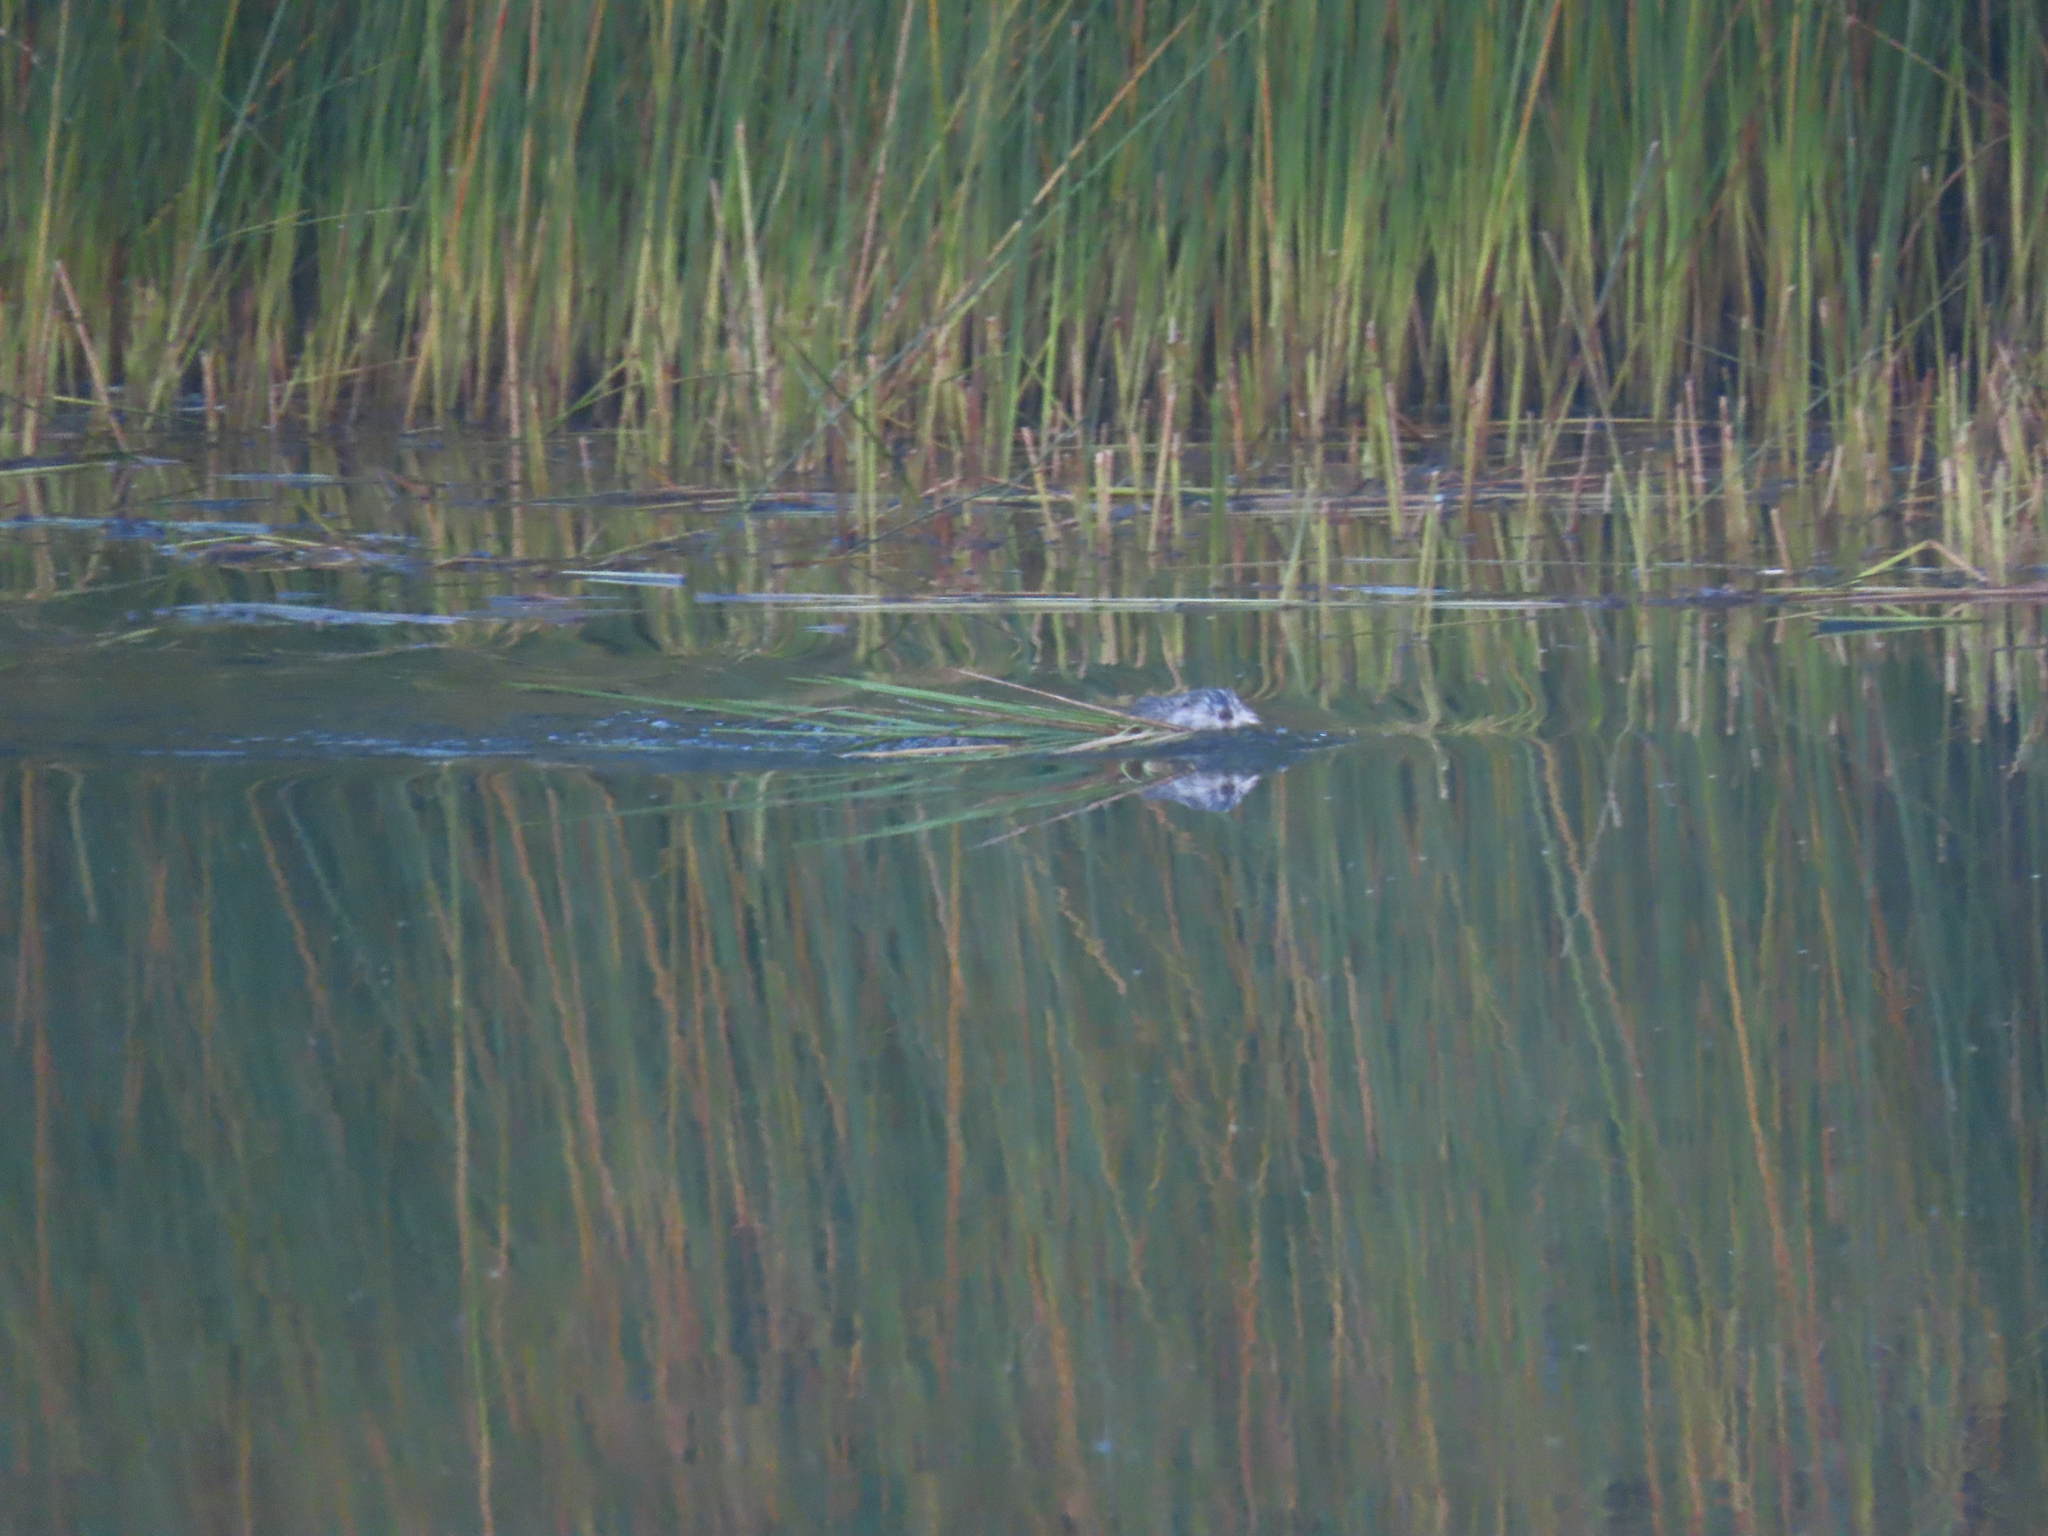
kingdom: Animalia
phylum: Chordata
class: Mammalia
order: Rodentia
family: Cricetidae
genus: Ondatra
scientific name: Ondatra zibethicus
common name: Muskrat
